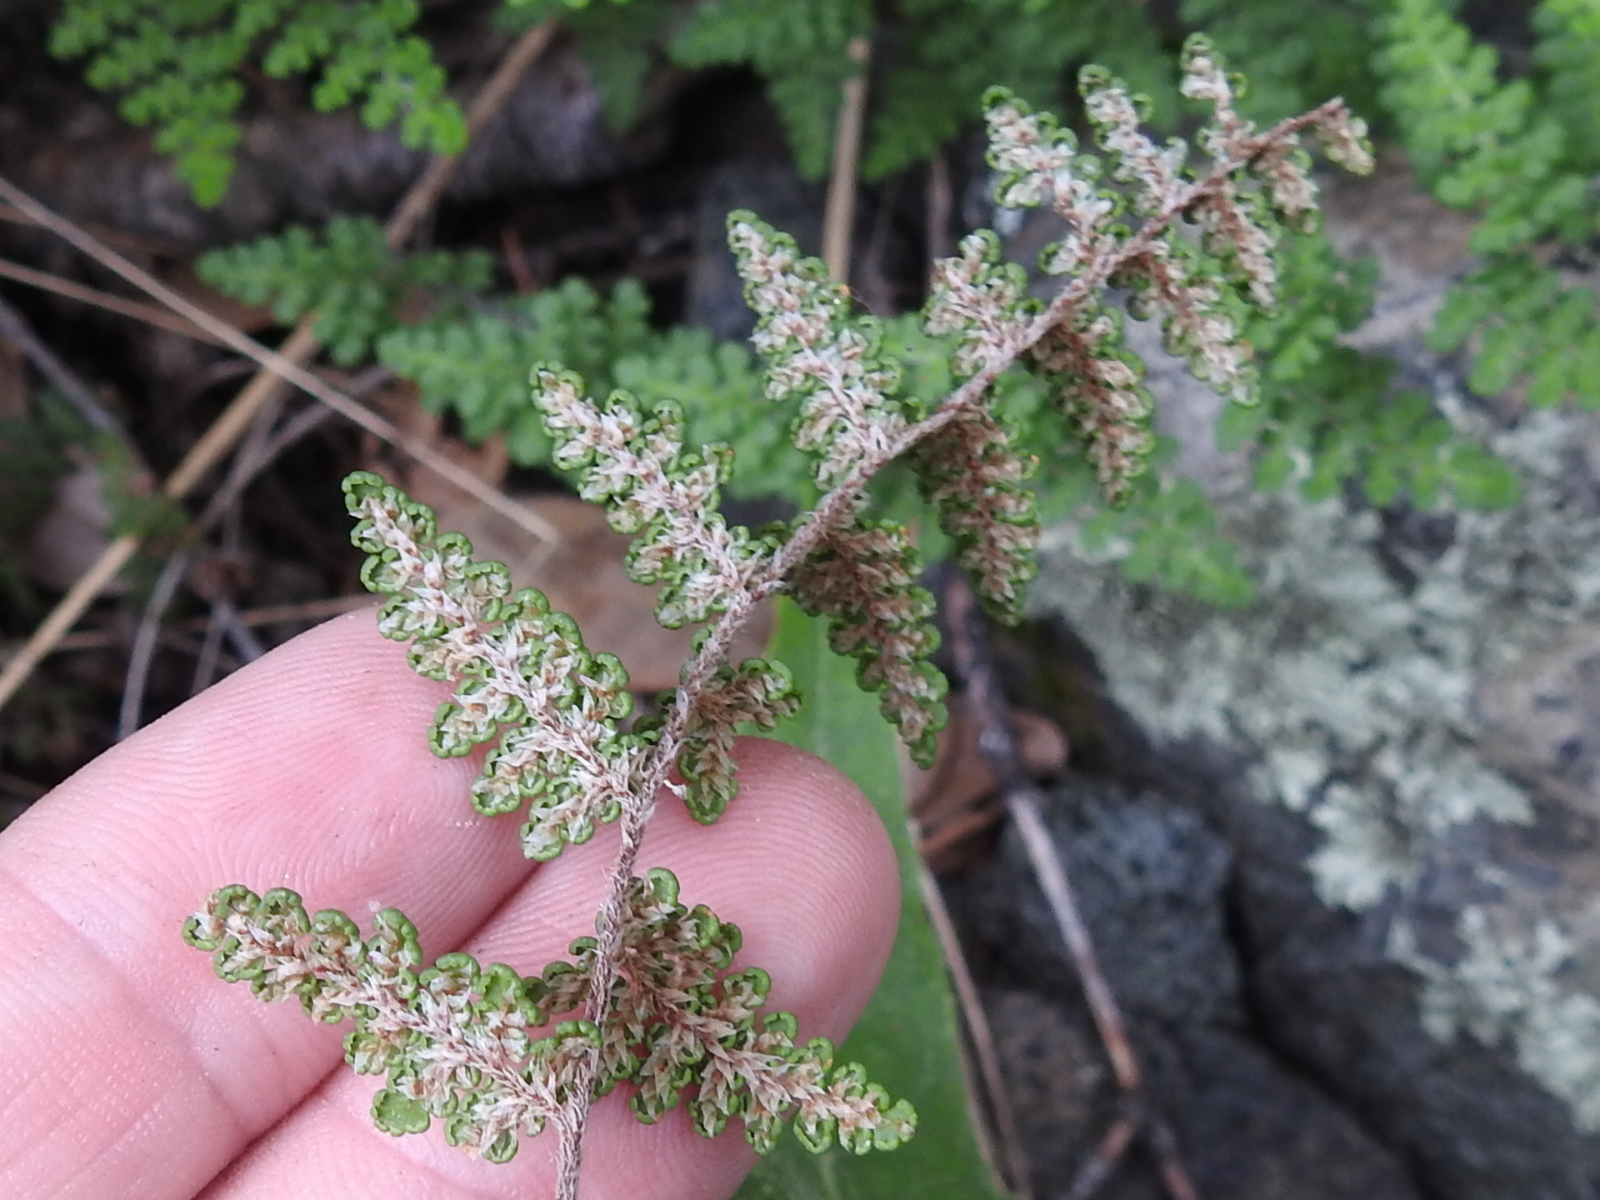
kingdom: Plantae
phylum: Tracheophyta
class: Polypodiopsida
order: Polypodiales
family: Pteridaceae
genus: Myriopteris
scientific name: Myriopteris fendleri
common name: Fendler's lip fern
